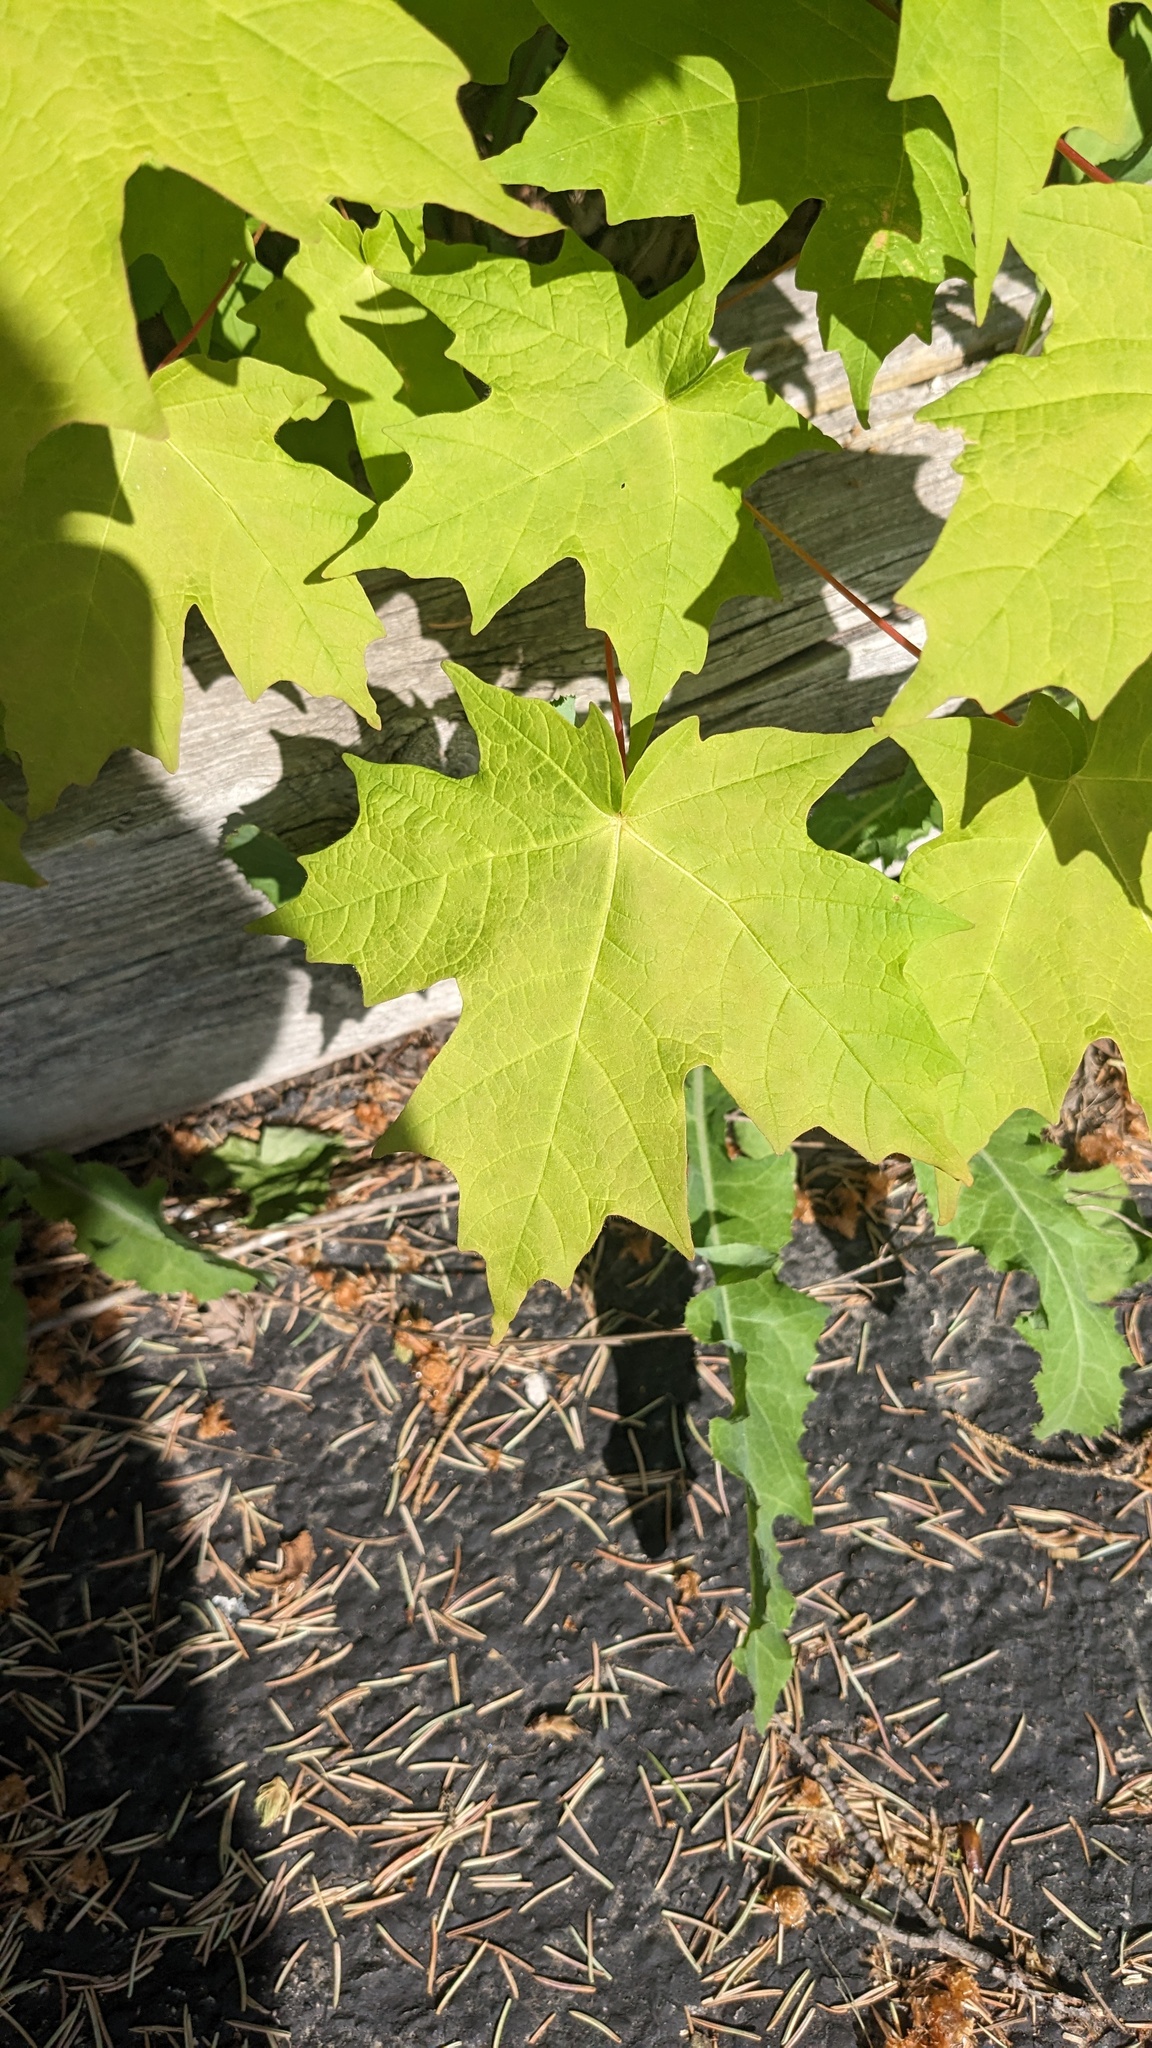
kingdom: Plantae
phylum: Tracheophyta
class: Magnoliopsida
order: Sapindales
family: Sapindaceae
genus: Acer
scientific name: Acer saccharum
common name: Sugar maple
